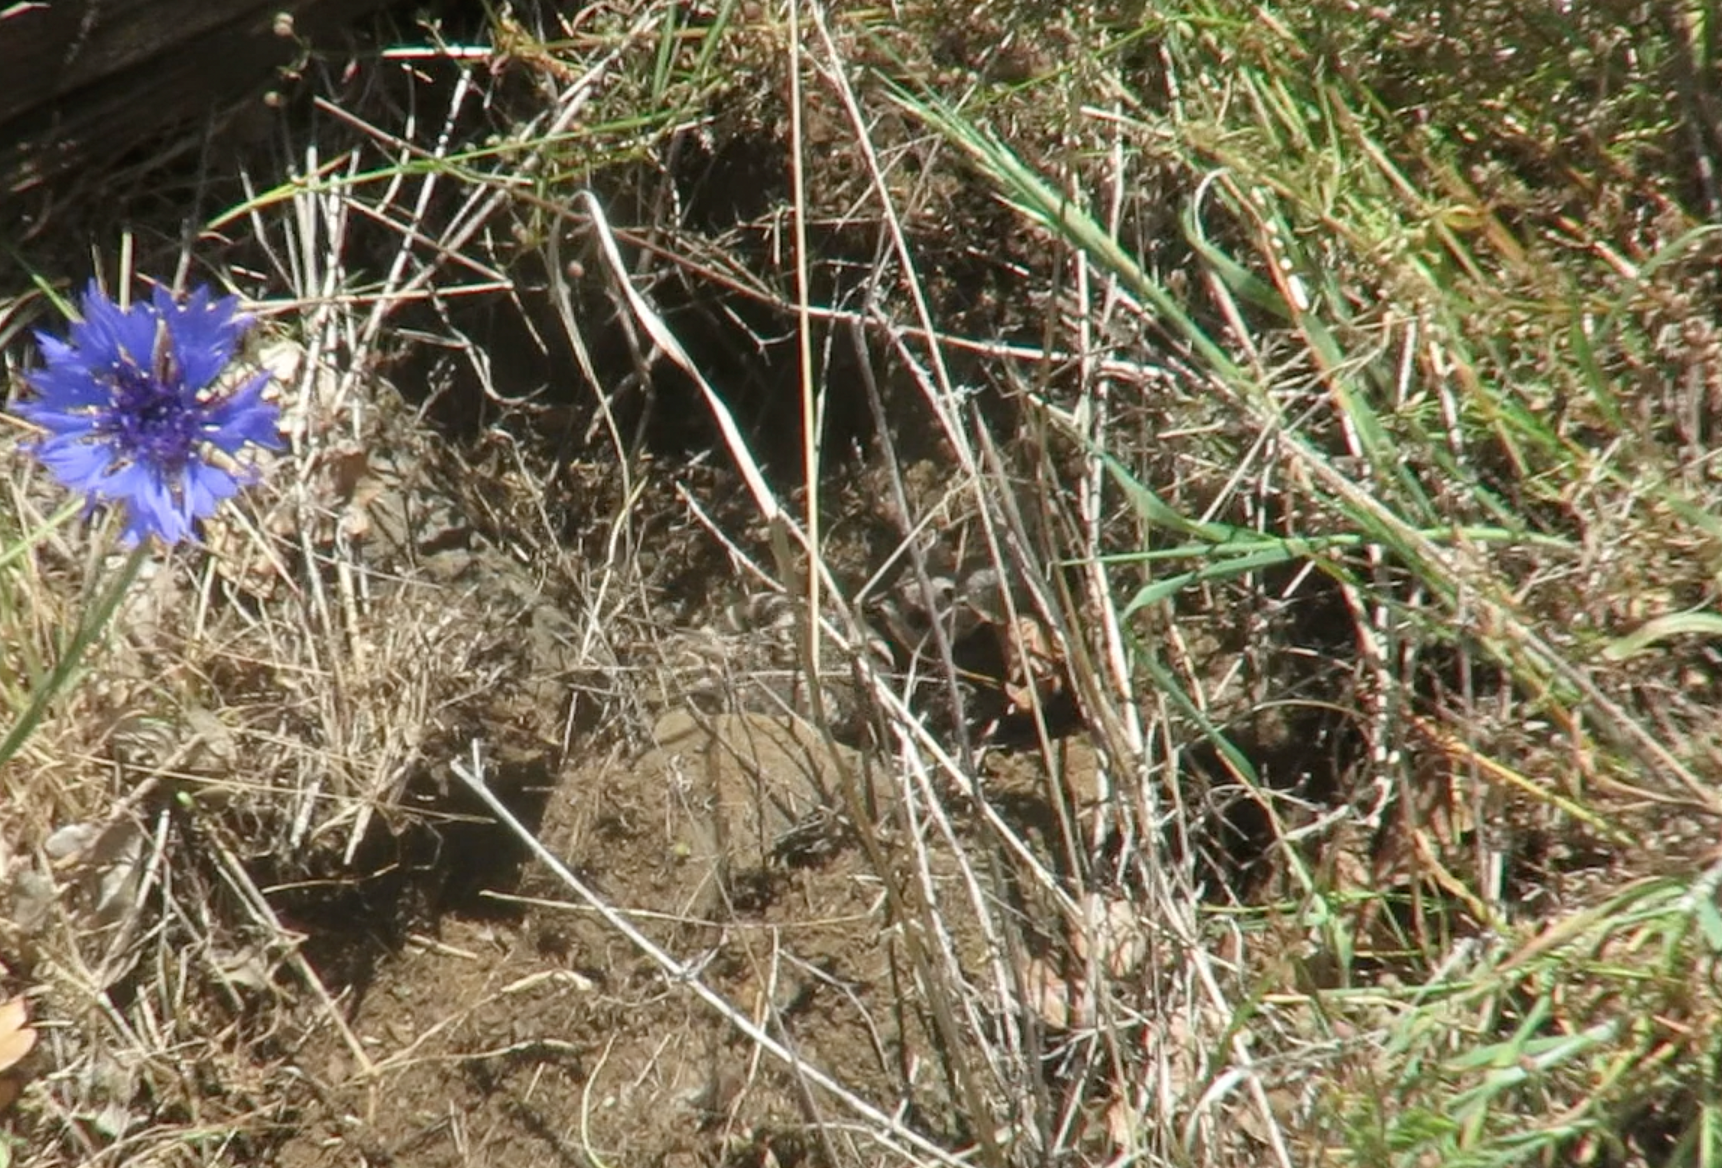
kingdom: Animalia
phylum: Chordata
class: Squamata
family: Viperidae
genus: Crotalus
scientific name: Crotalus oreganus
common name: Abyssus
